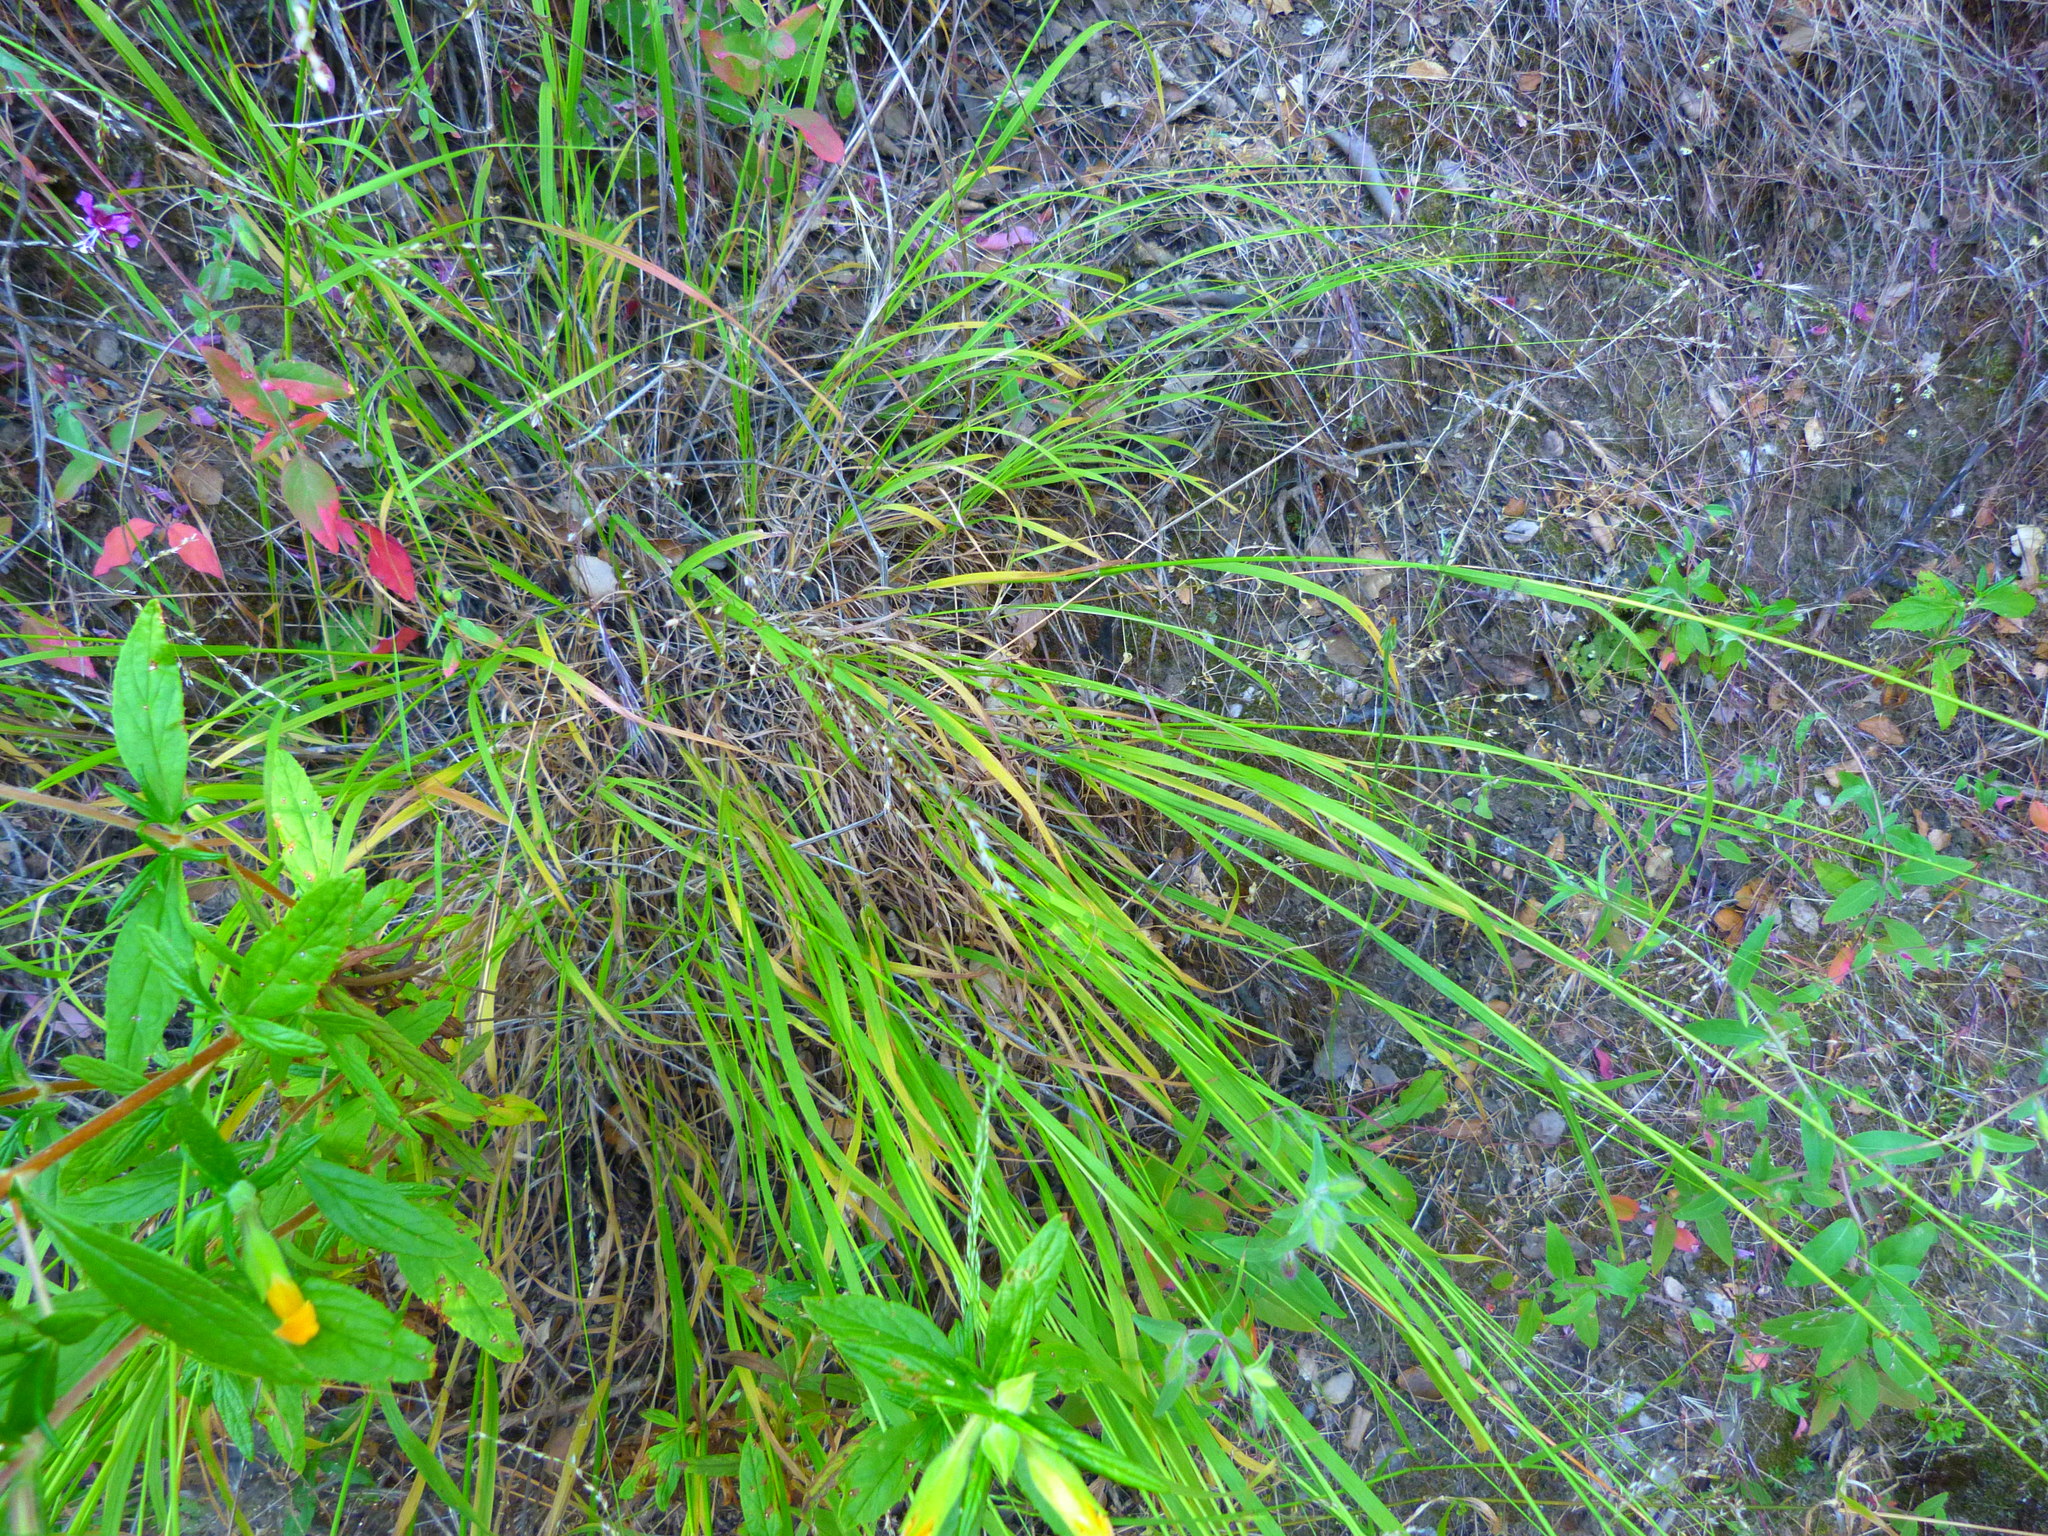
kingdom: Plantae
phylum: Tracheophyta
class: Liliopsida
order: Poales
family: Poaceae
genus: Melica
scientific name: Melica imperfecta
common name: California melic
